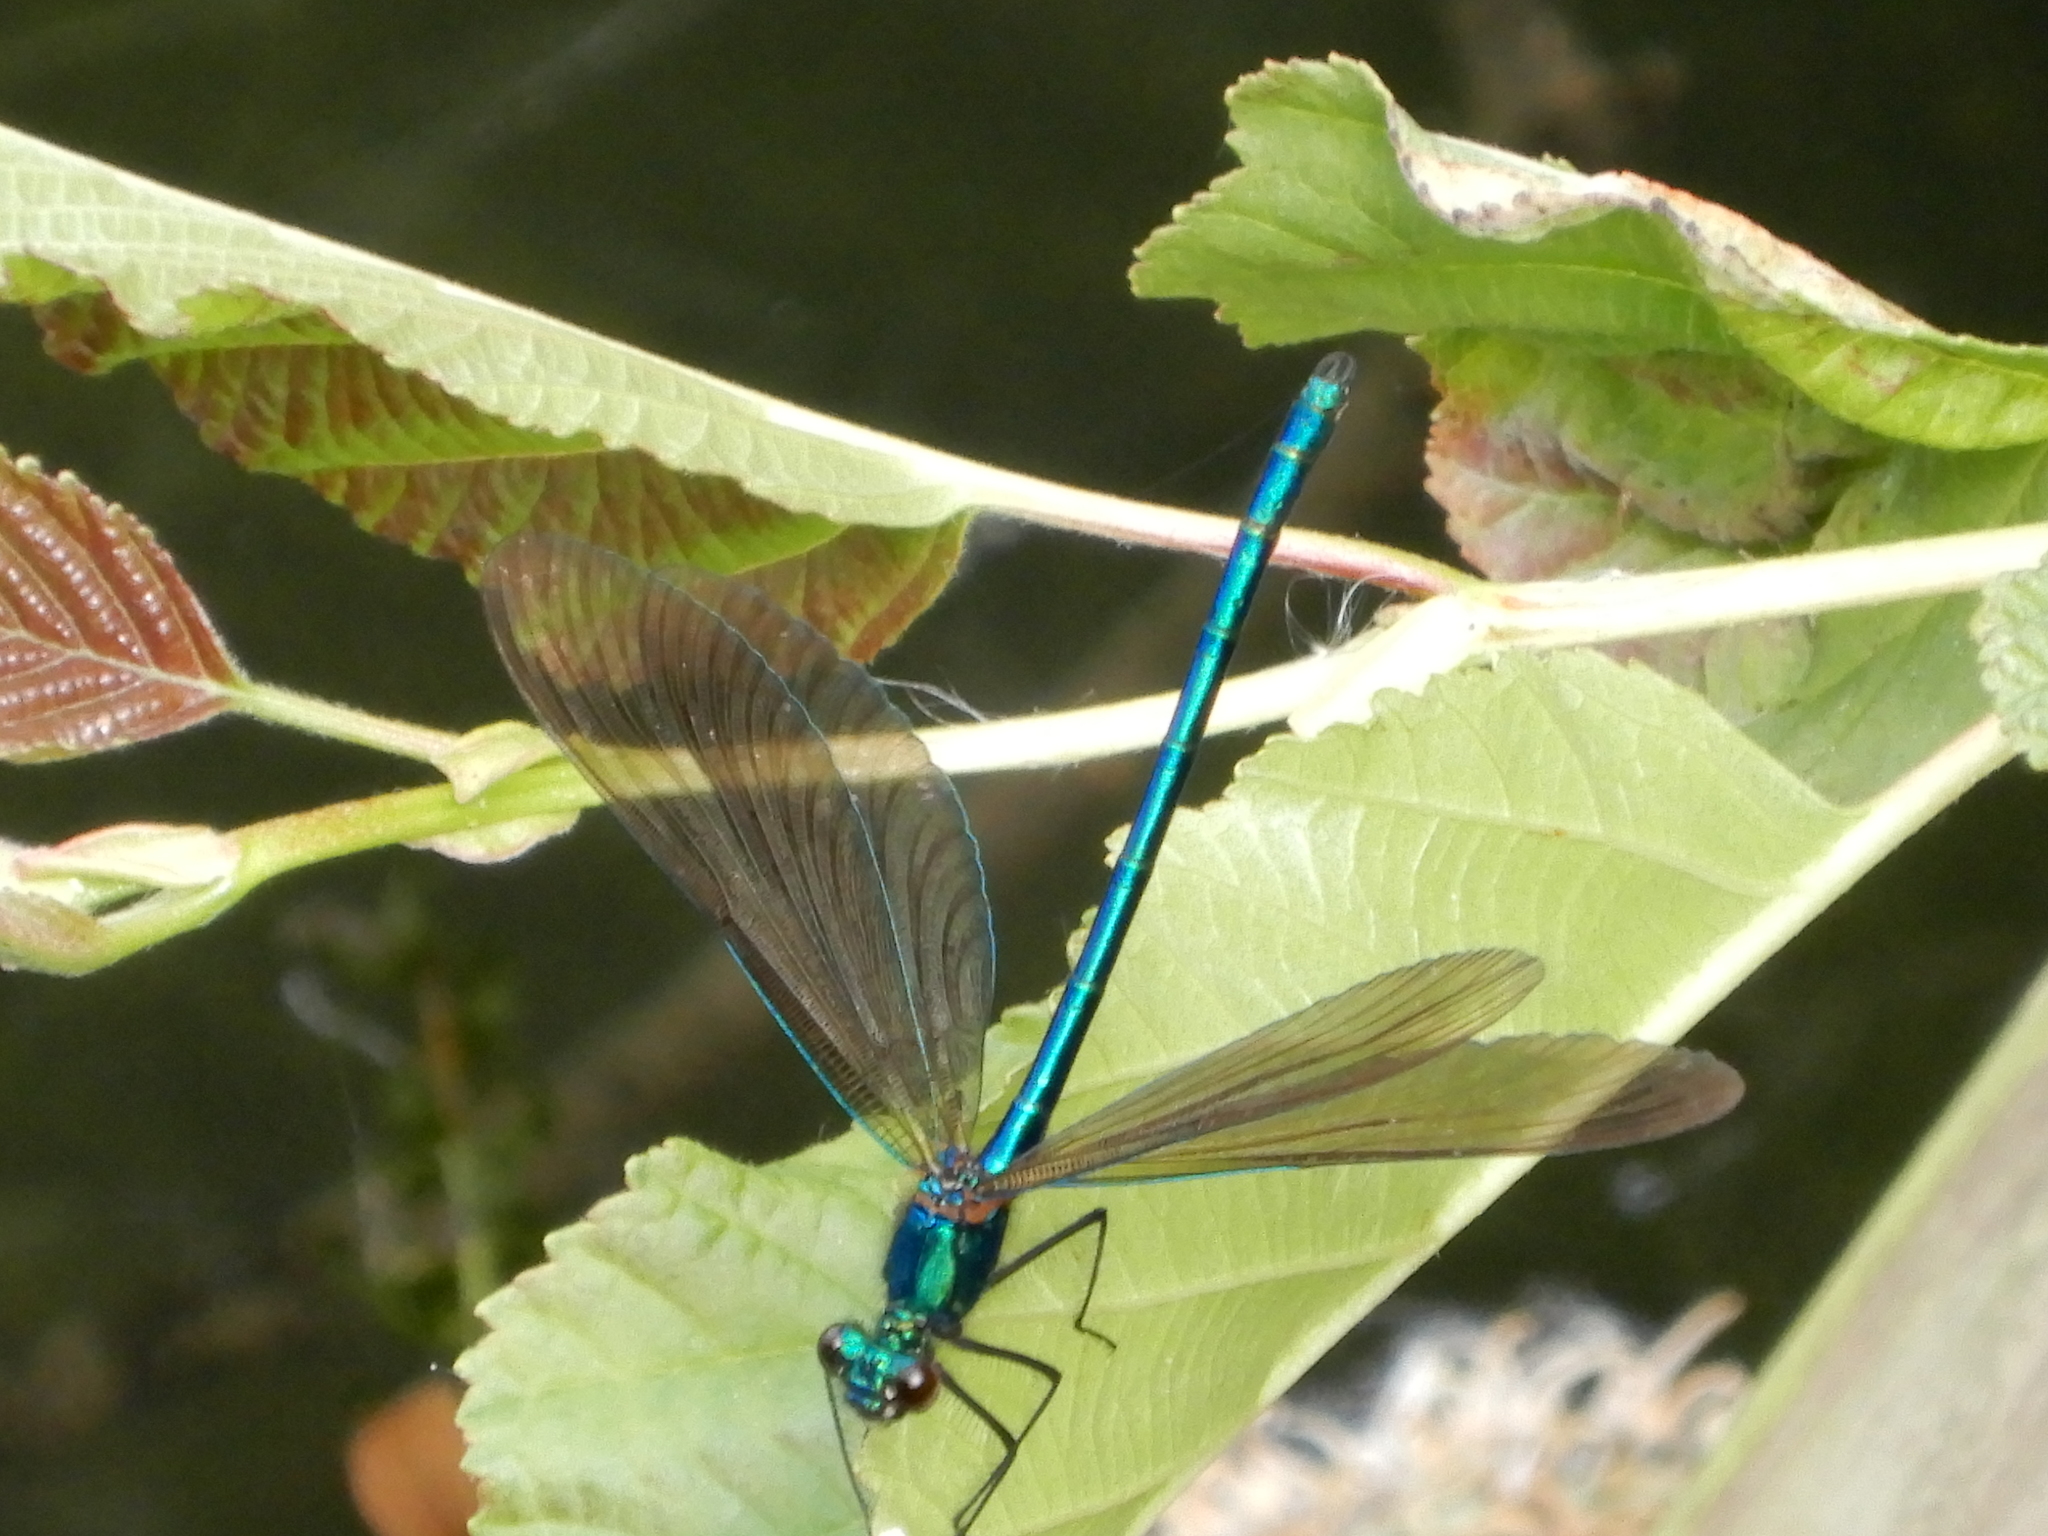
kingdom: Animalia
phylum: Arthropoda
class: Insecta
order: Odonata
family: Calopterygidae
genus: Calopteryx
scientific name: Calopteryx virgo
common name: Beautiful demoiselle
